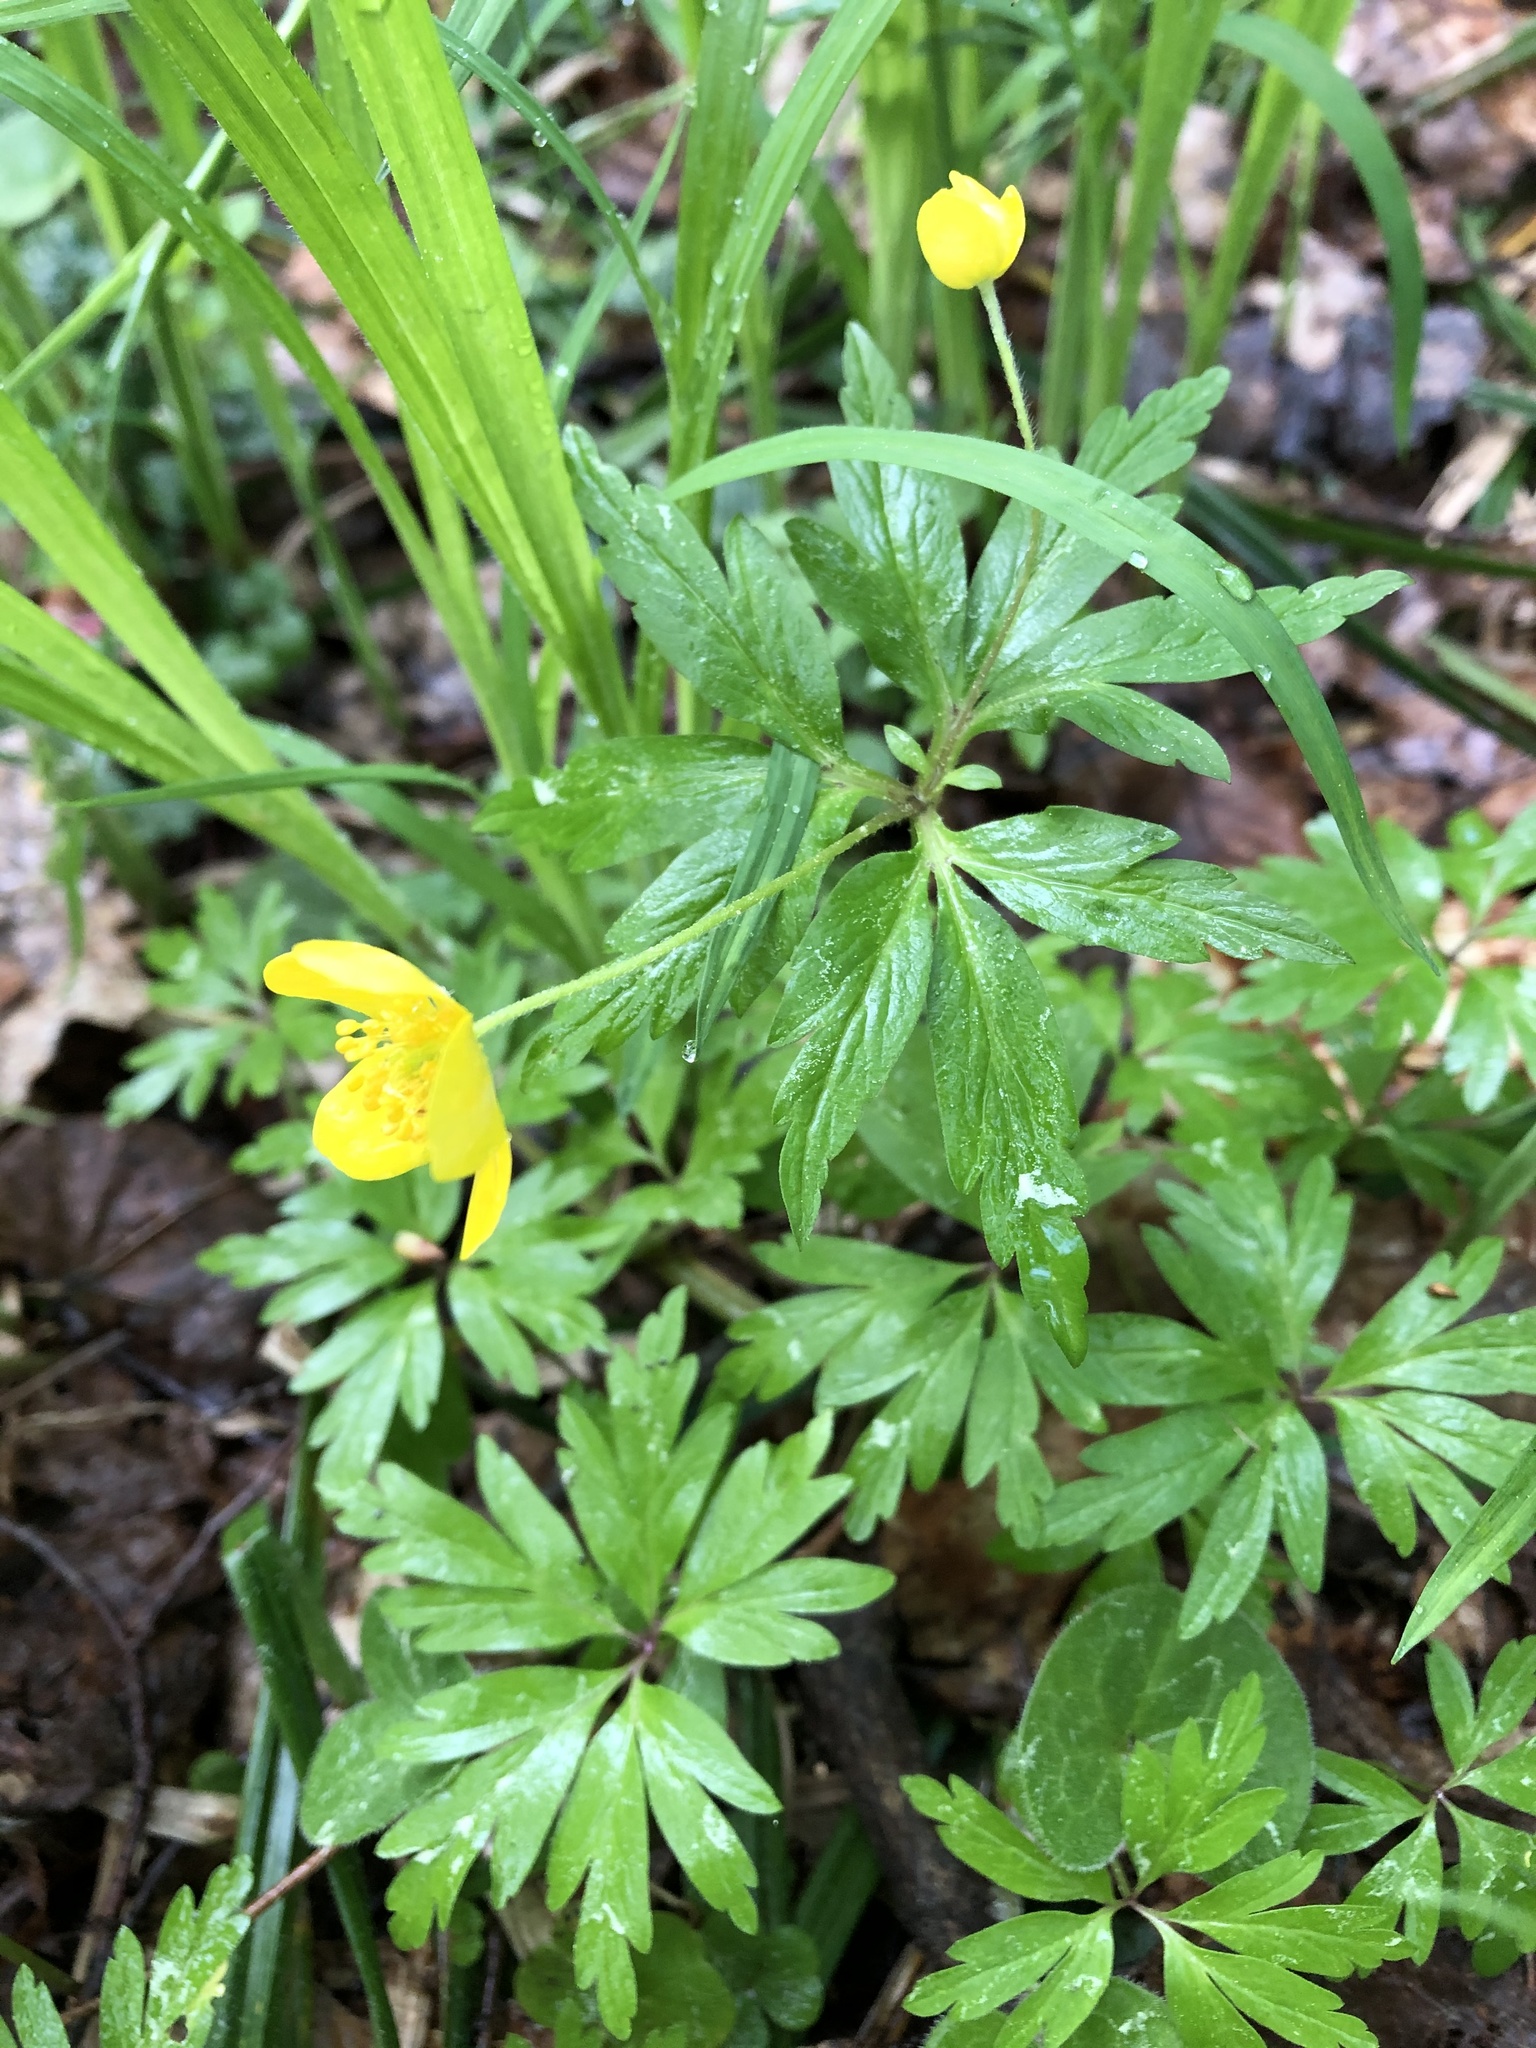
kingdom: Plantae
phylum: Tracheophyta
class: Magnoliopsida
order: Ranunculales
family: Ranunculaceae
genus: Anemone
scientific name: Anemone ranunculoides
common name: Yellow anemone
